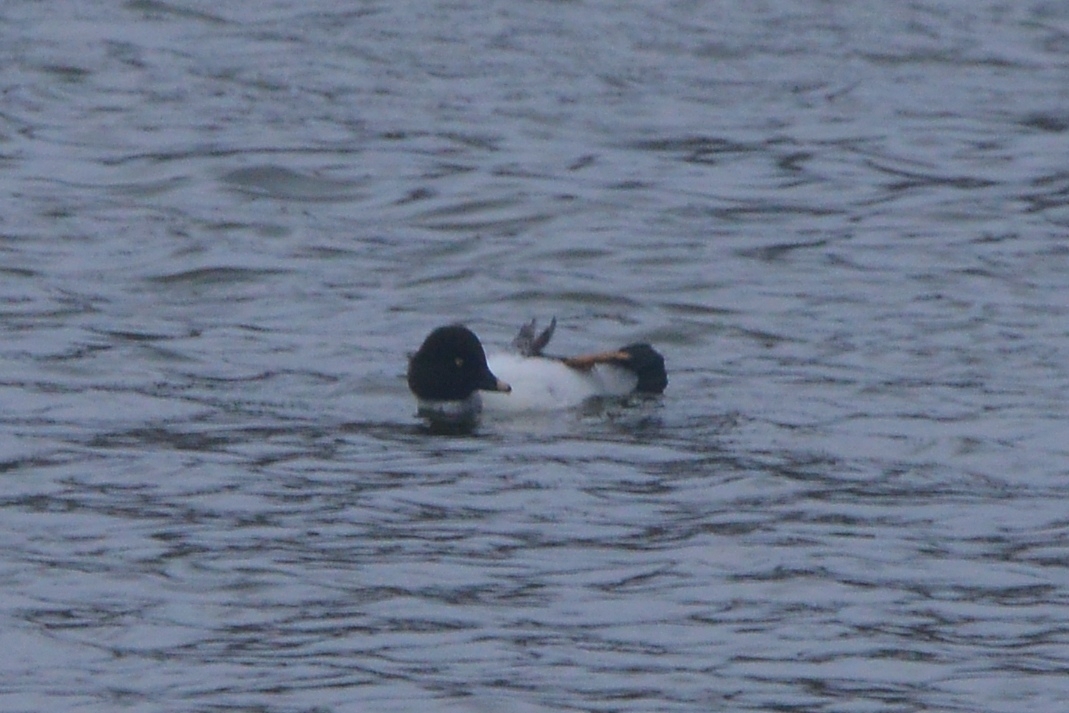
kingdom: Animalia
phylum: Chordata
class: Aves
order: Anseriformes
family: Anatidae
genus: Bucephala
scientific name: Bucephala clangula
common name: Common goldeneye
